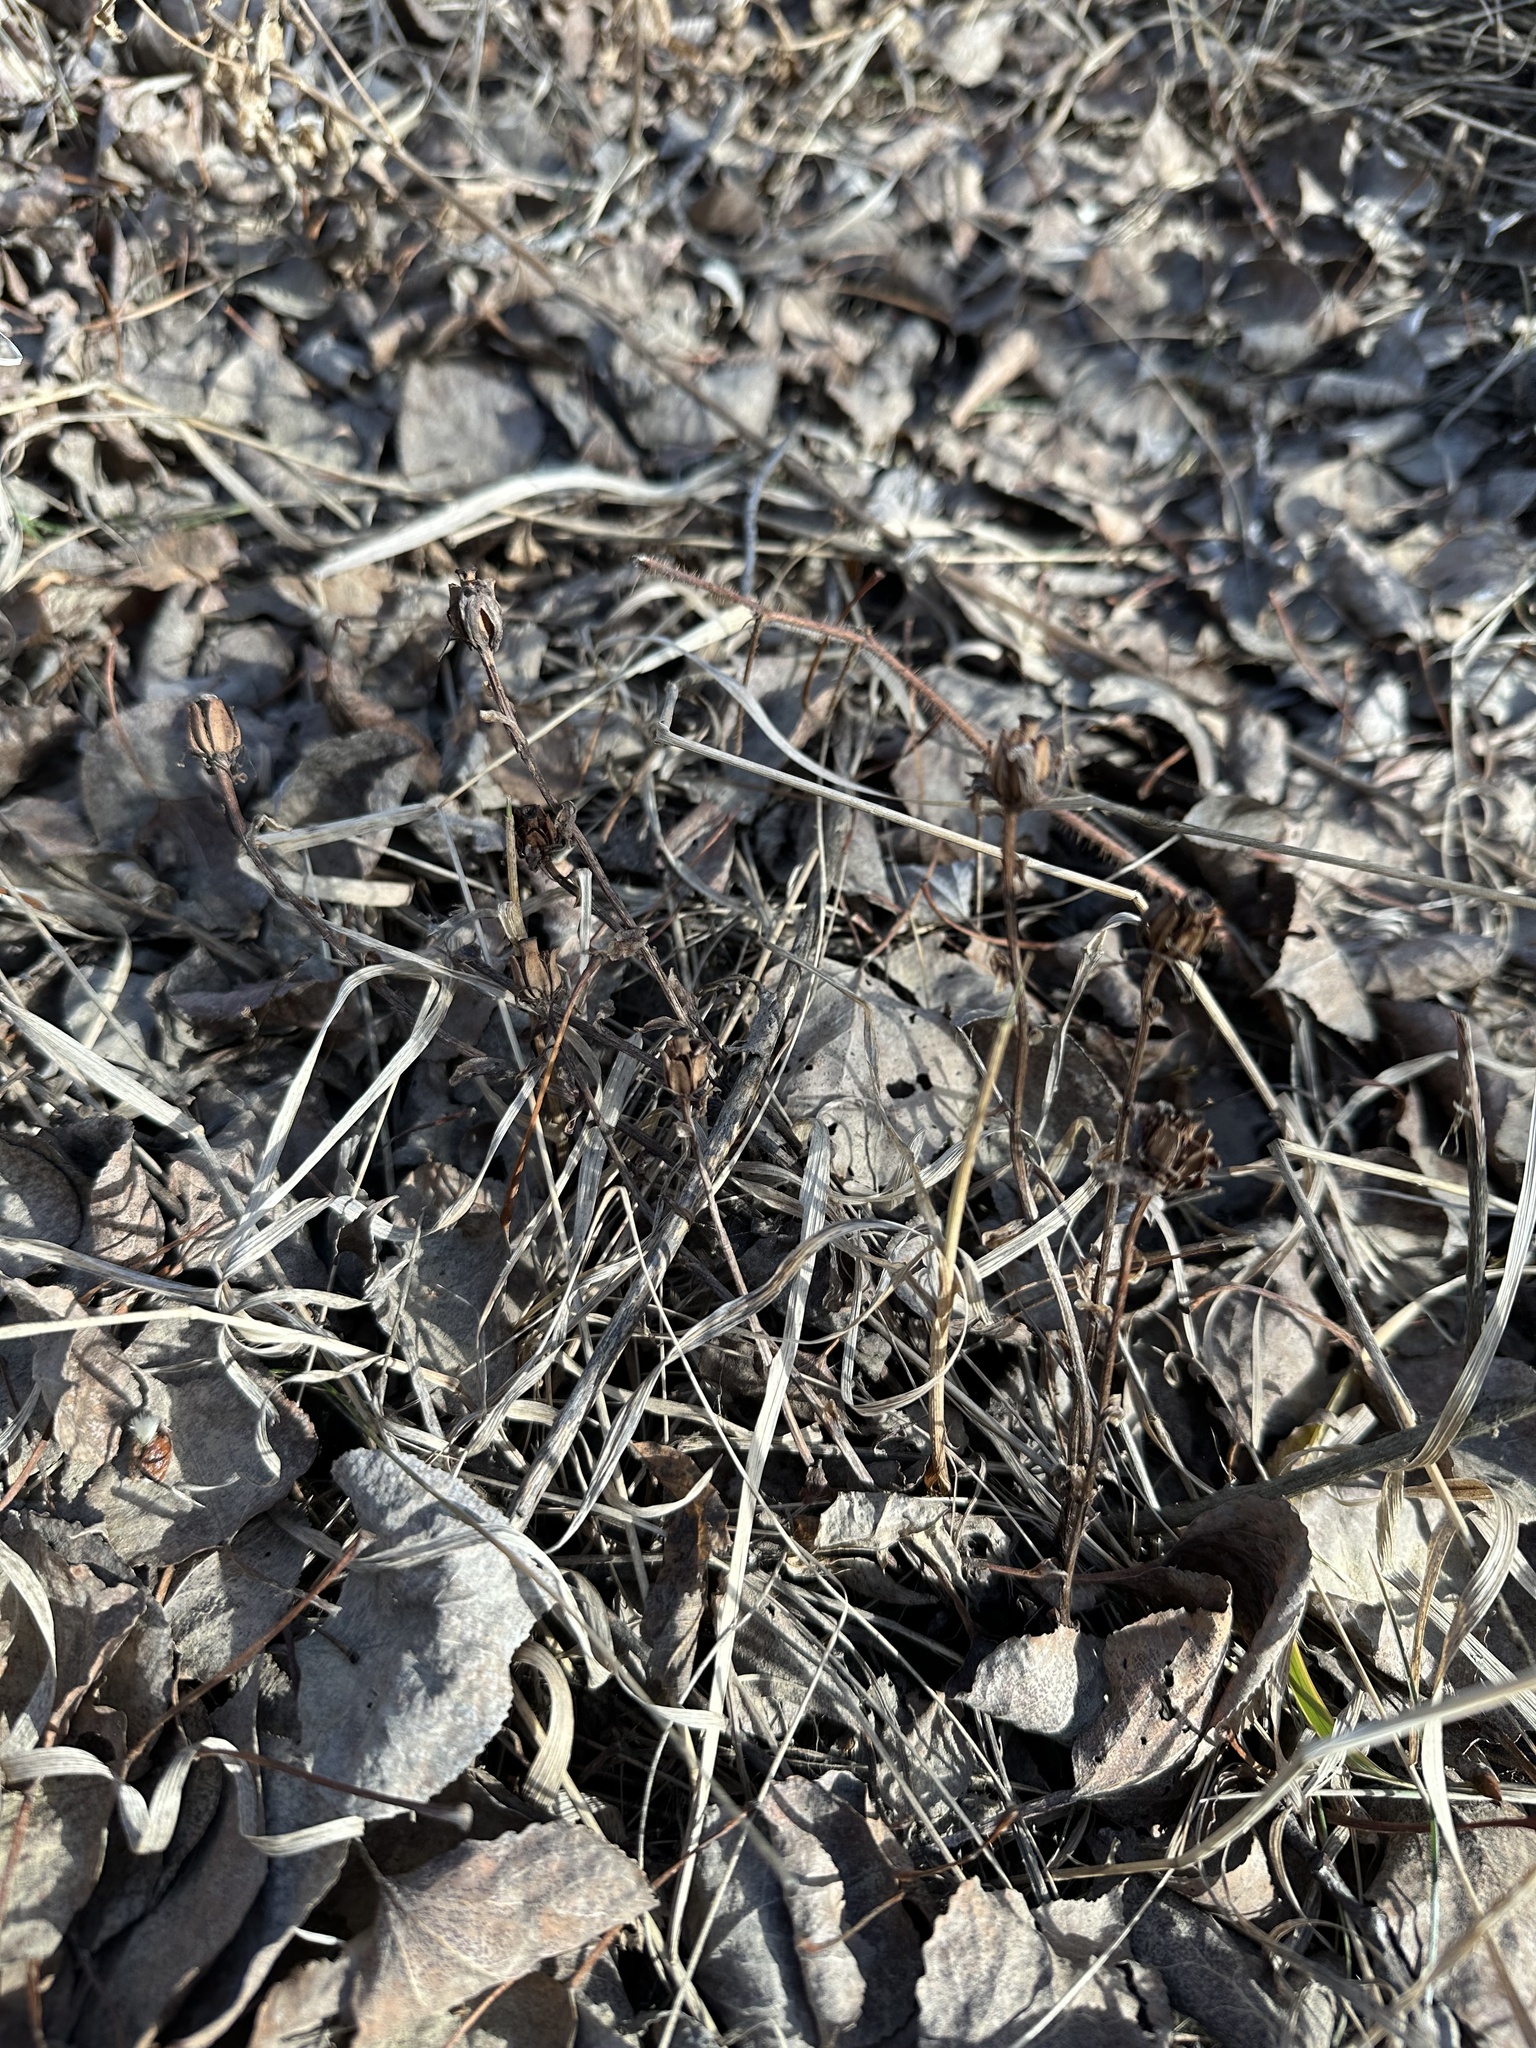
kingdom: Plantae
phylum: Tracheophyta
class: Magnoliopsida
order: Ericales
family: Ericaceae
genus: Monotropa
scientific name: Monotropa uniflora
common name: Convulsion root
